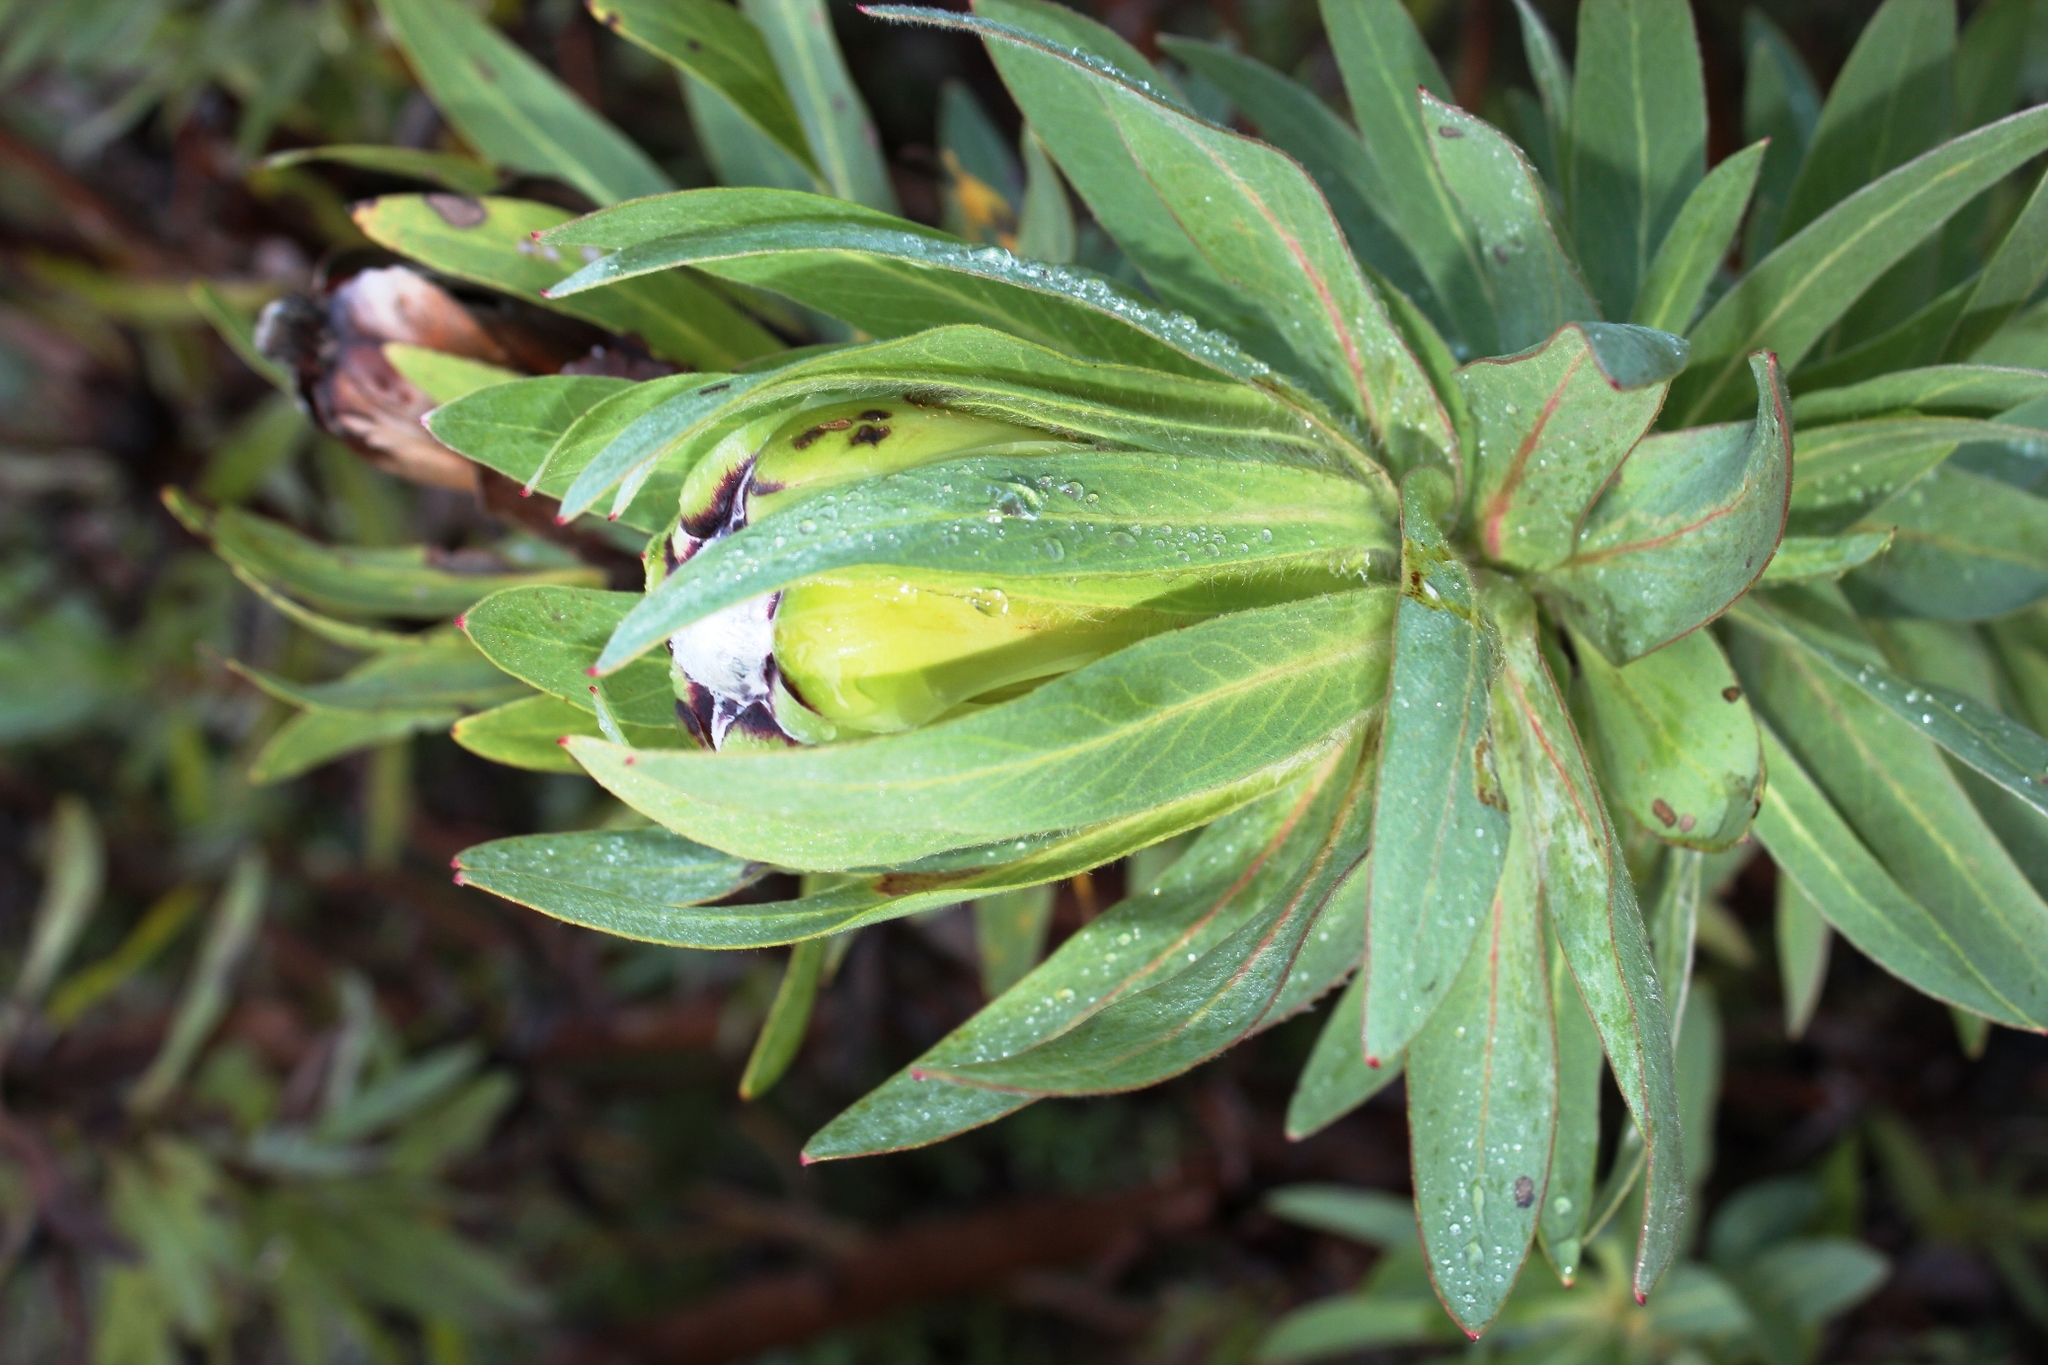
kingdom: Plantae
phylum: Tracheophyta
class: Magnoliopsida
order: Proteales
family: Proteaceae
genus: Protea
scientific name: Protea coronata
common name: Green sugarbush
